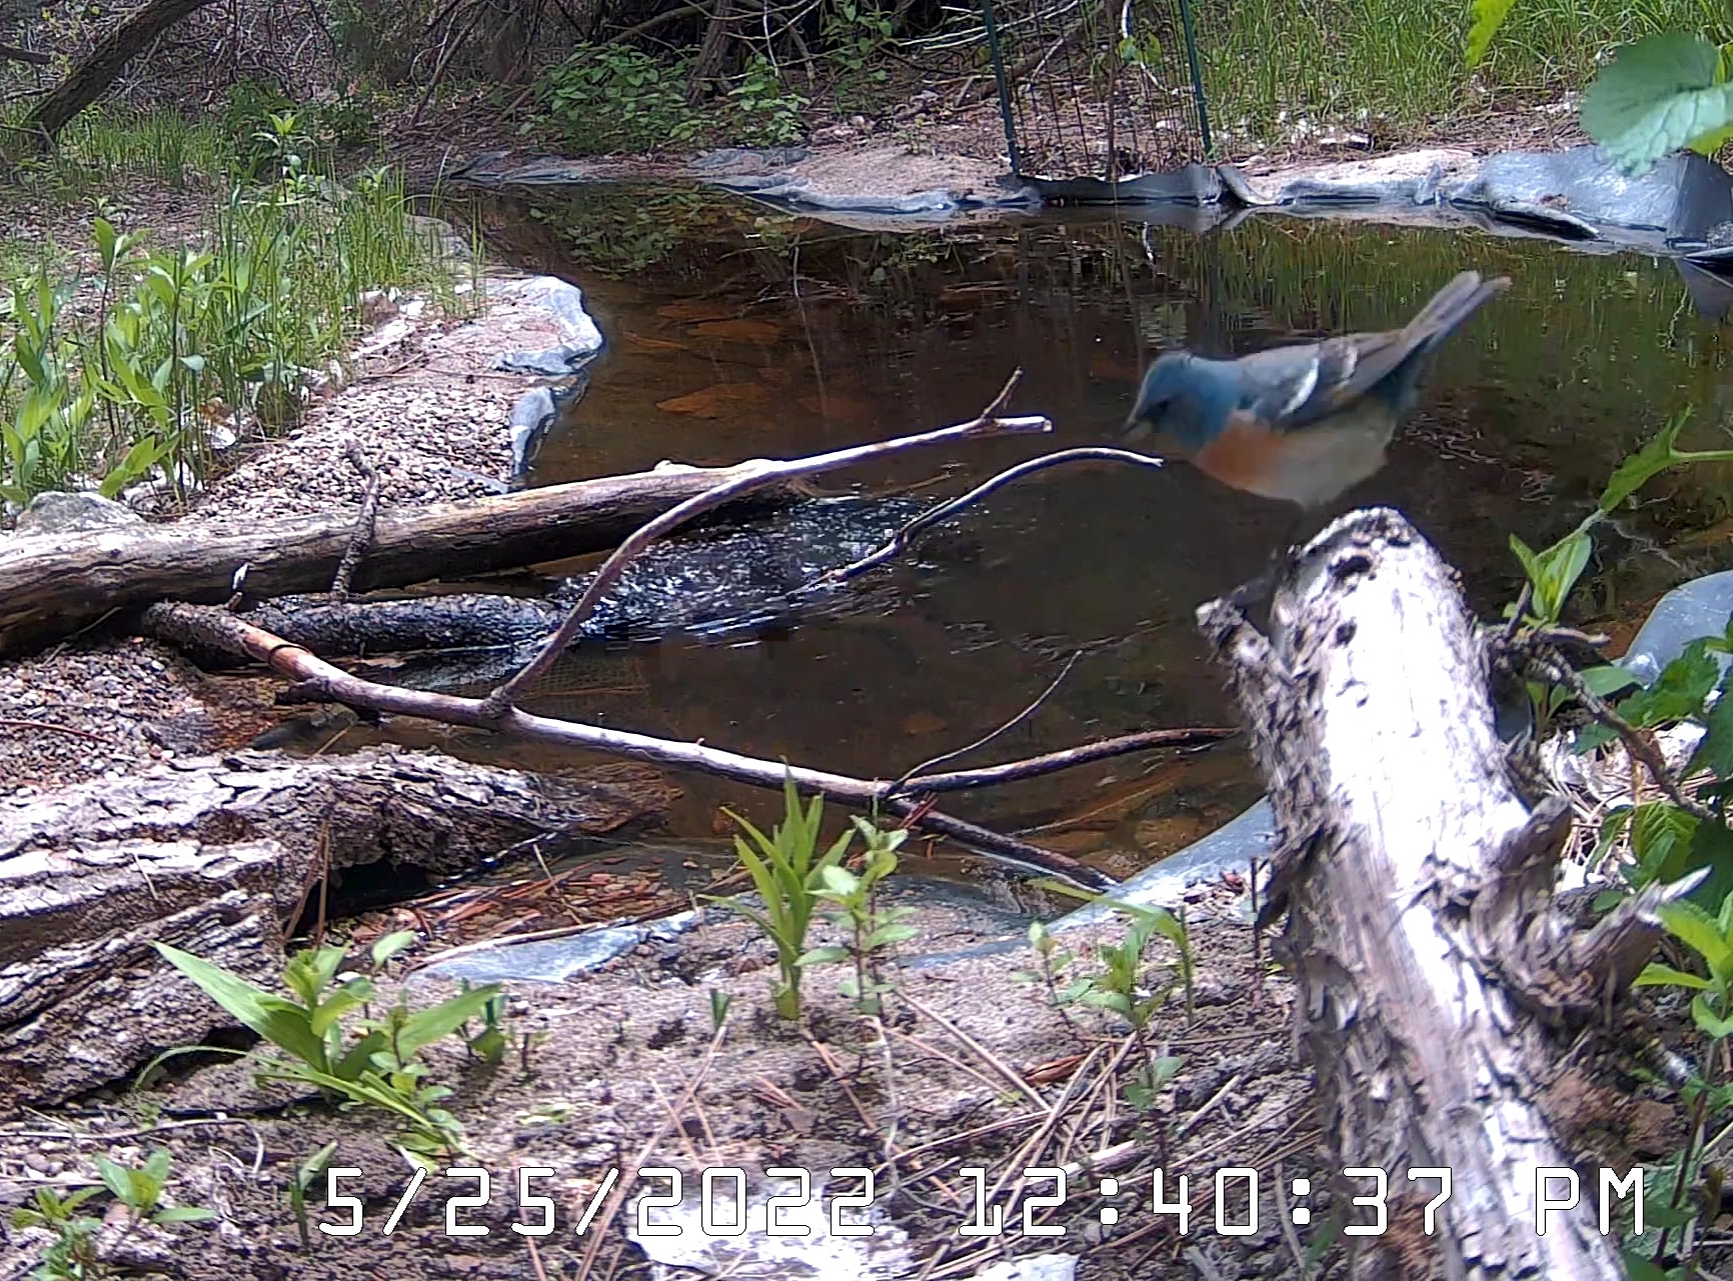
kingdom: Animalia
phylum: Chordata
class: Aves
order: Passeriformes
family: Cardinalidae
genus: Passerina
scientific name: Passerina amoena
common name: Lazuli bunting
